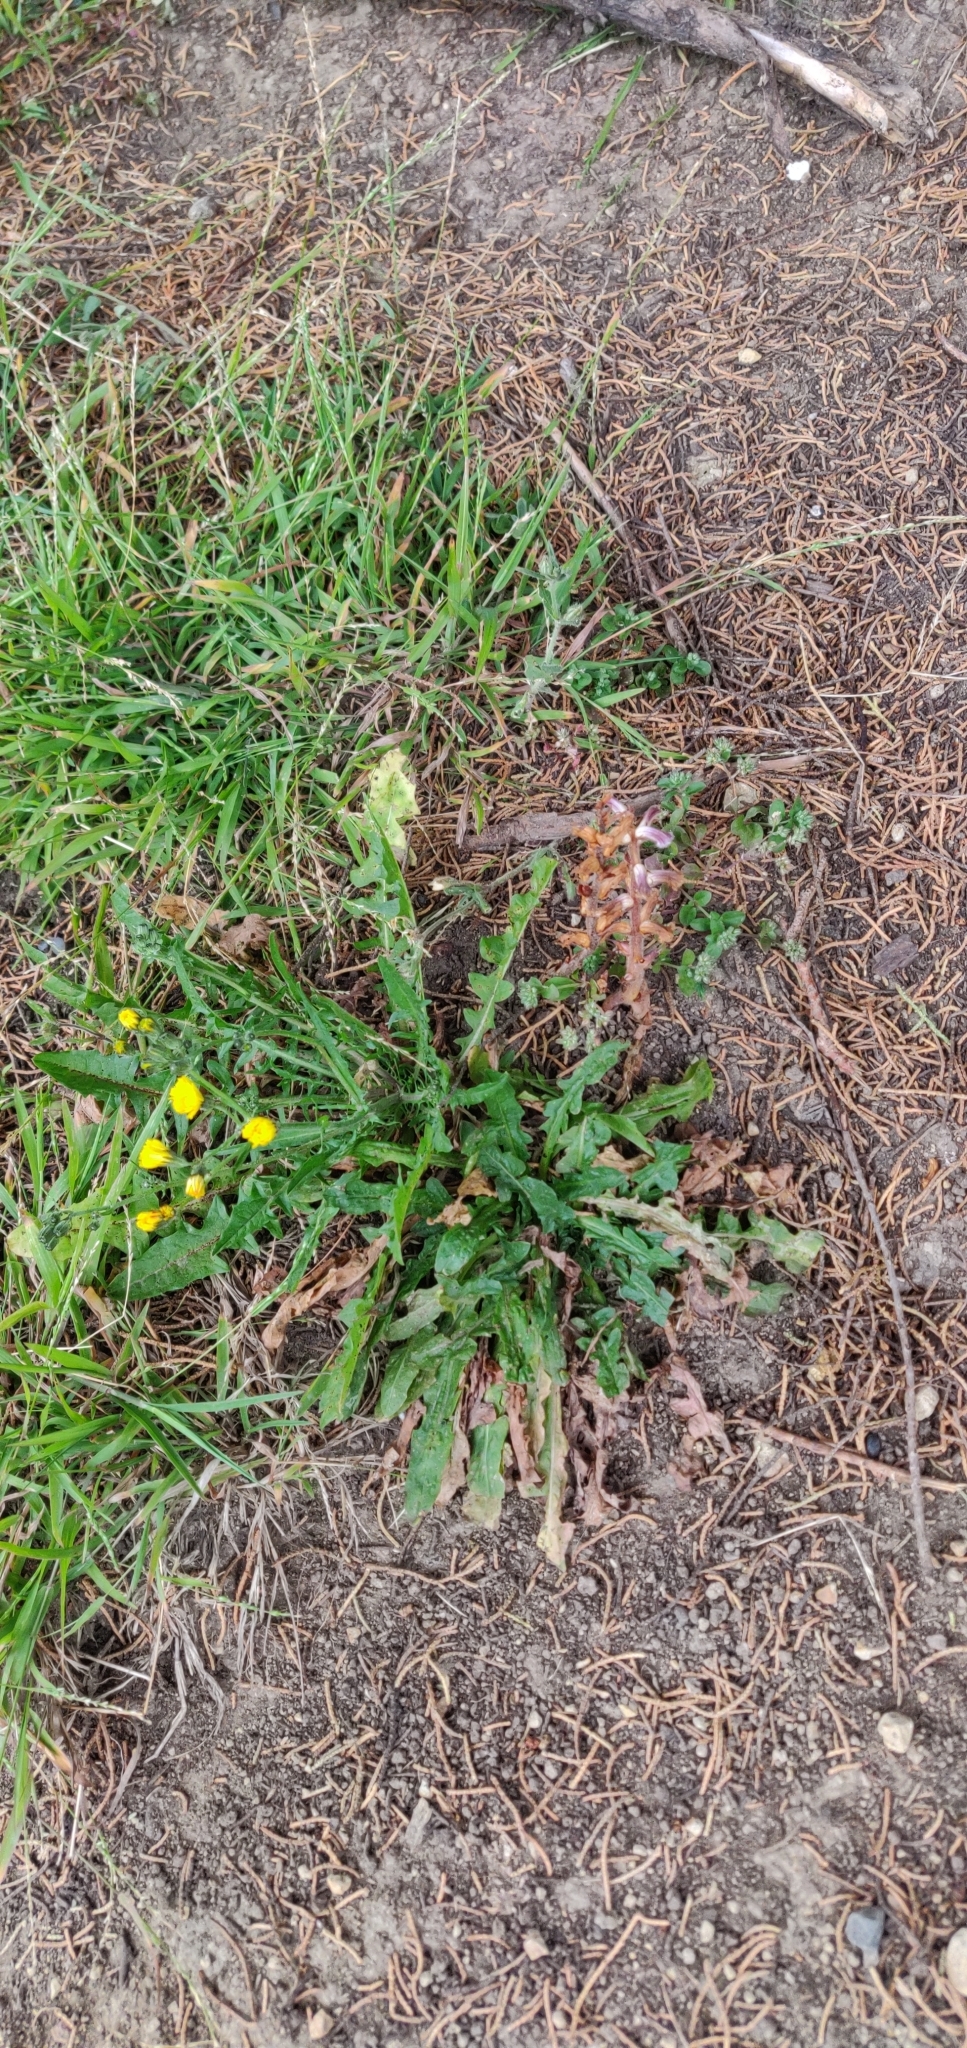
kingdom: Plantae
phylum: Tracheophyta
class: Magnoliopsida
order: Lamiales
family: Orobanchaceae
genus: Orobanche
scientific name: Orobanche minor
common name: Common broomrape
